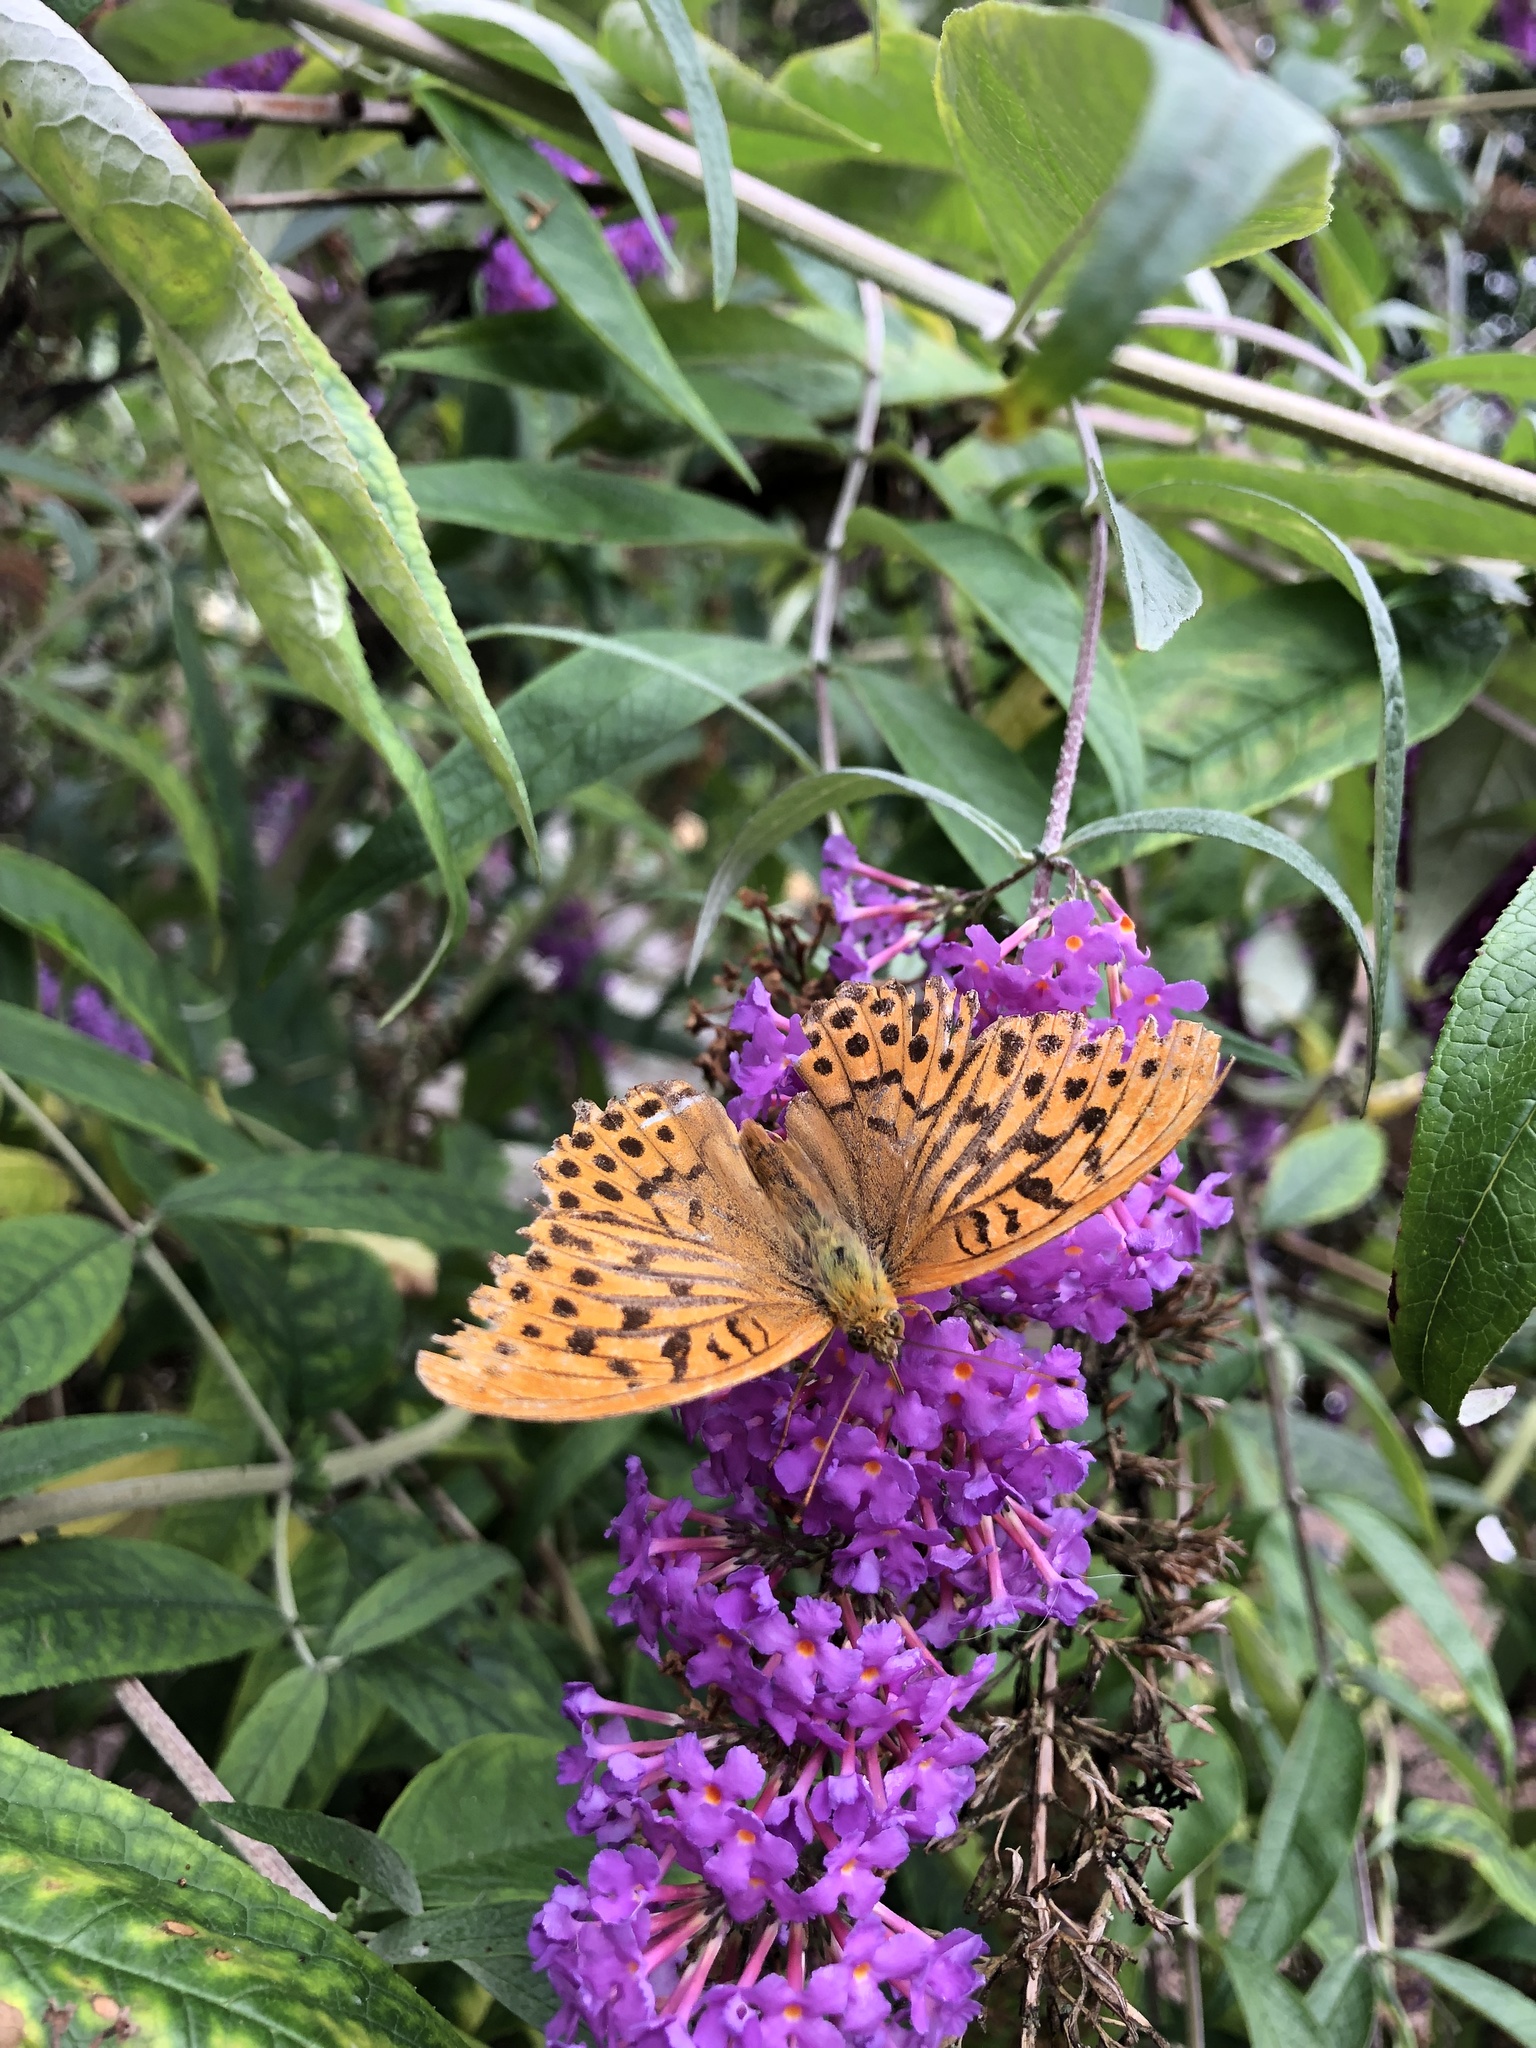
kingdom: Animalia
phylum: Arthropoda
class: Insecta
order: Lepidoptera
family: Nymphalidae
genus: Argynnis
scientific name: Argynnis paphia
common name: Silver-washed fritillary
